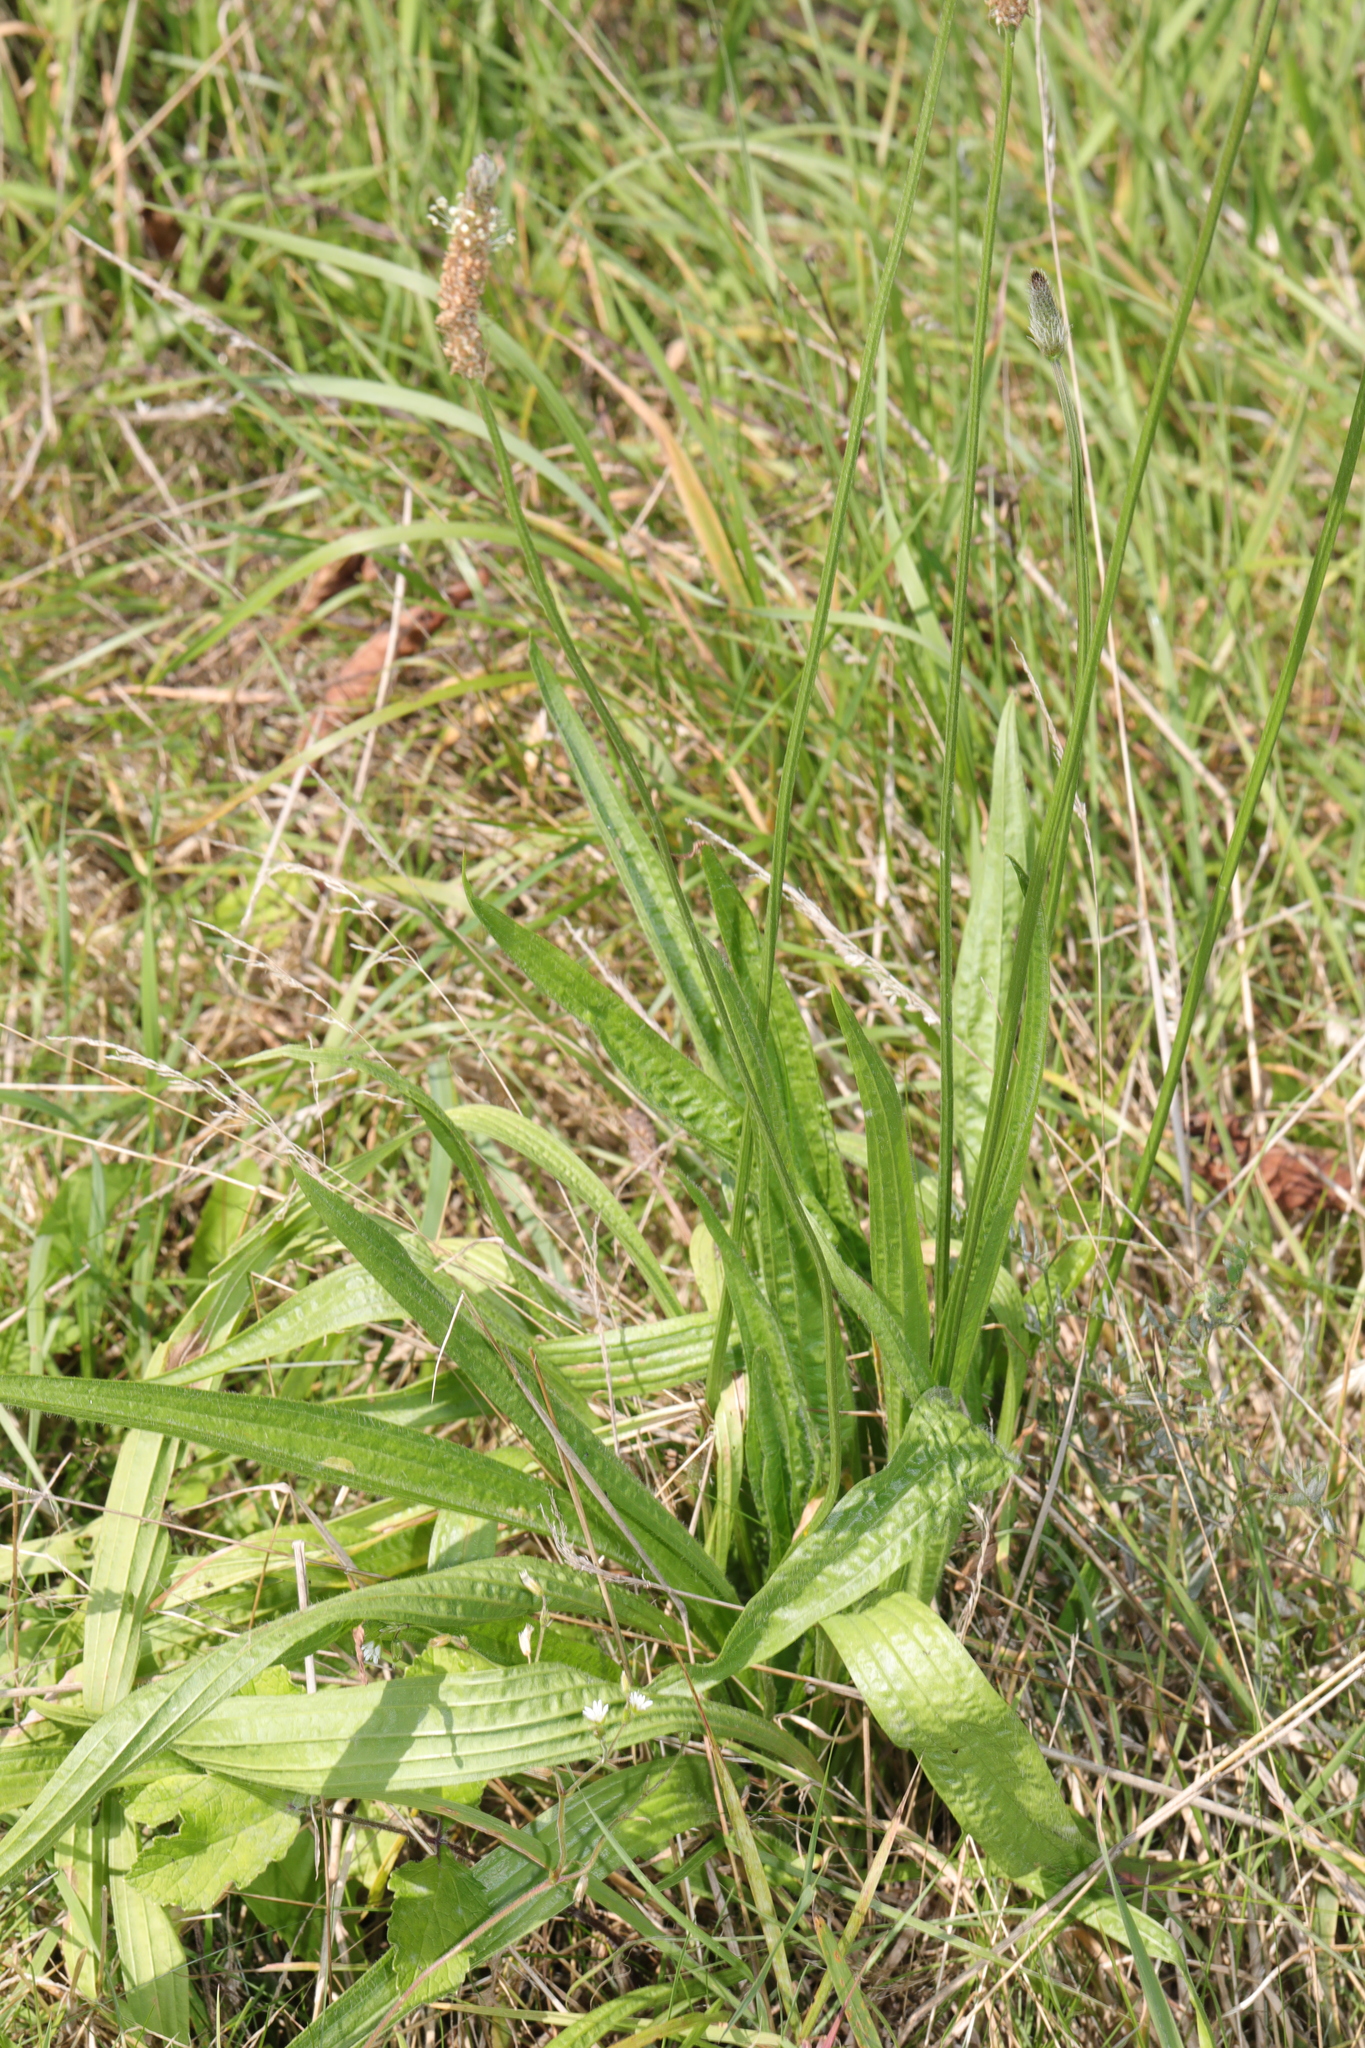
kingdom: Plantae
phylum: Tracheophyta
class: Magnoliopsida
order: Lamiales
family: Plantaginaceae
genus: Plantago
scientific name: Plantago lanceolata
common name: Ribwort plantain
